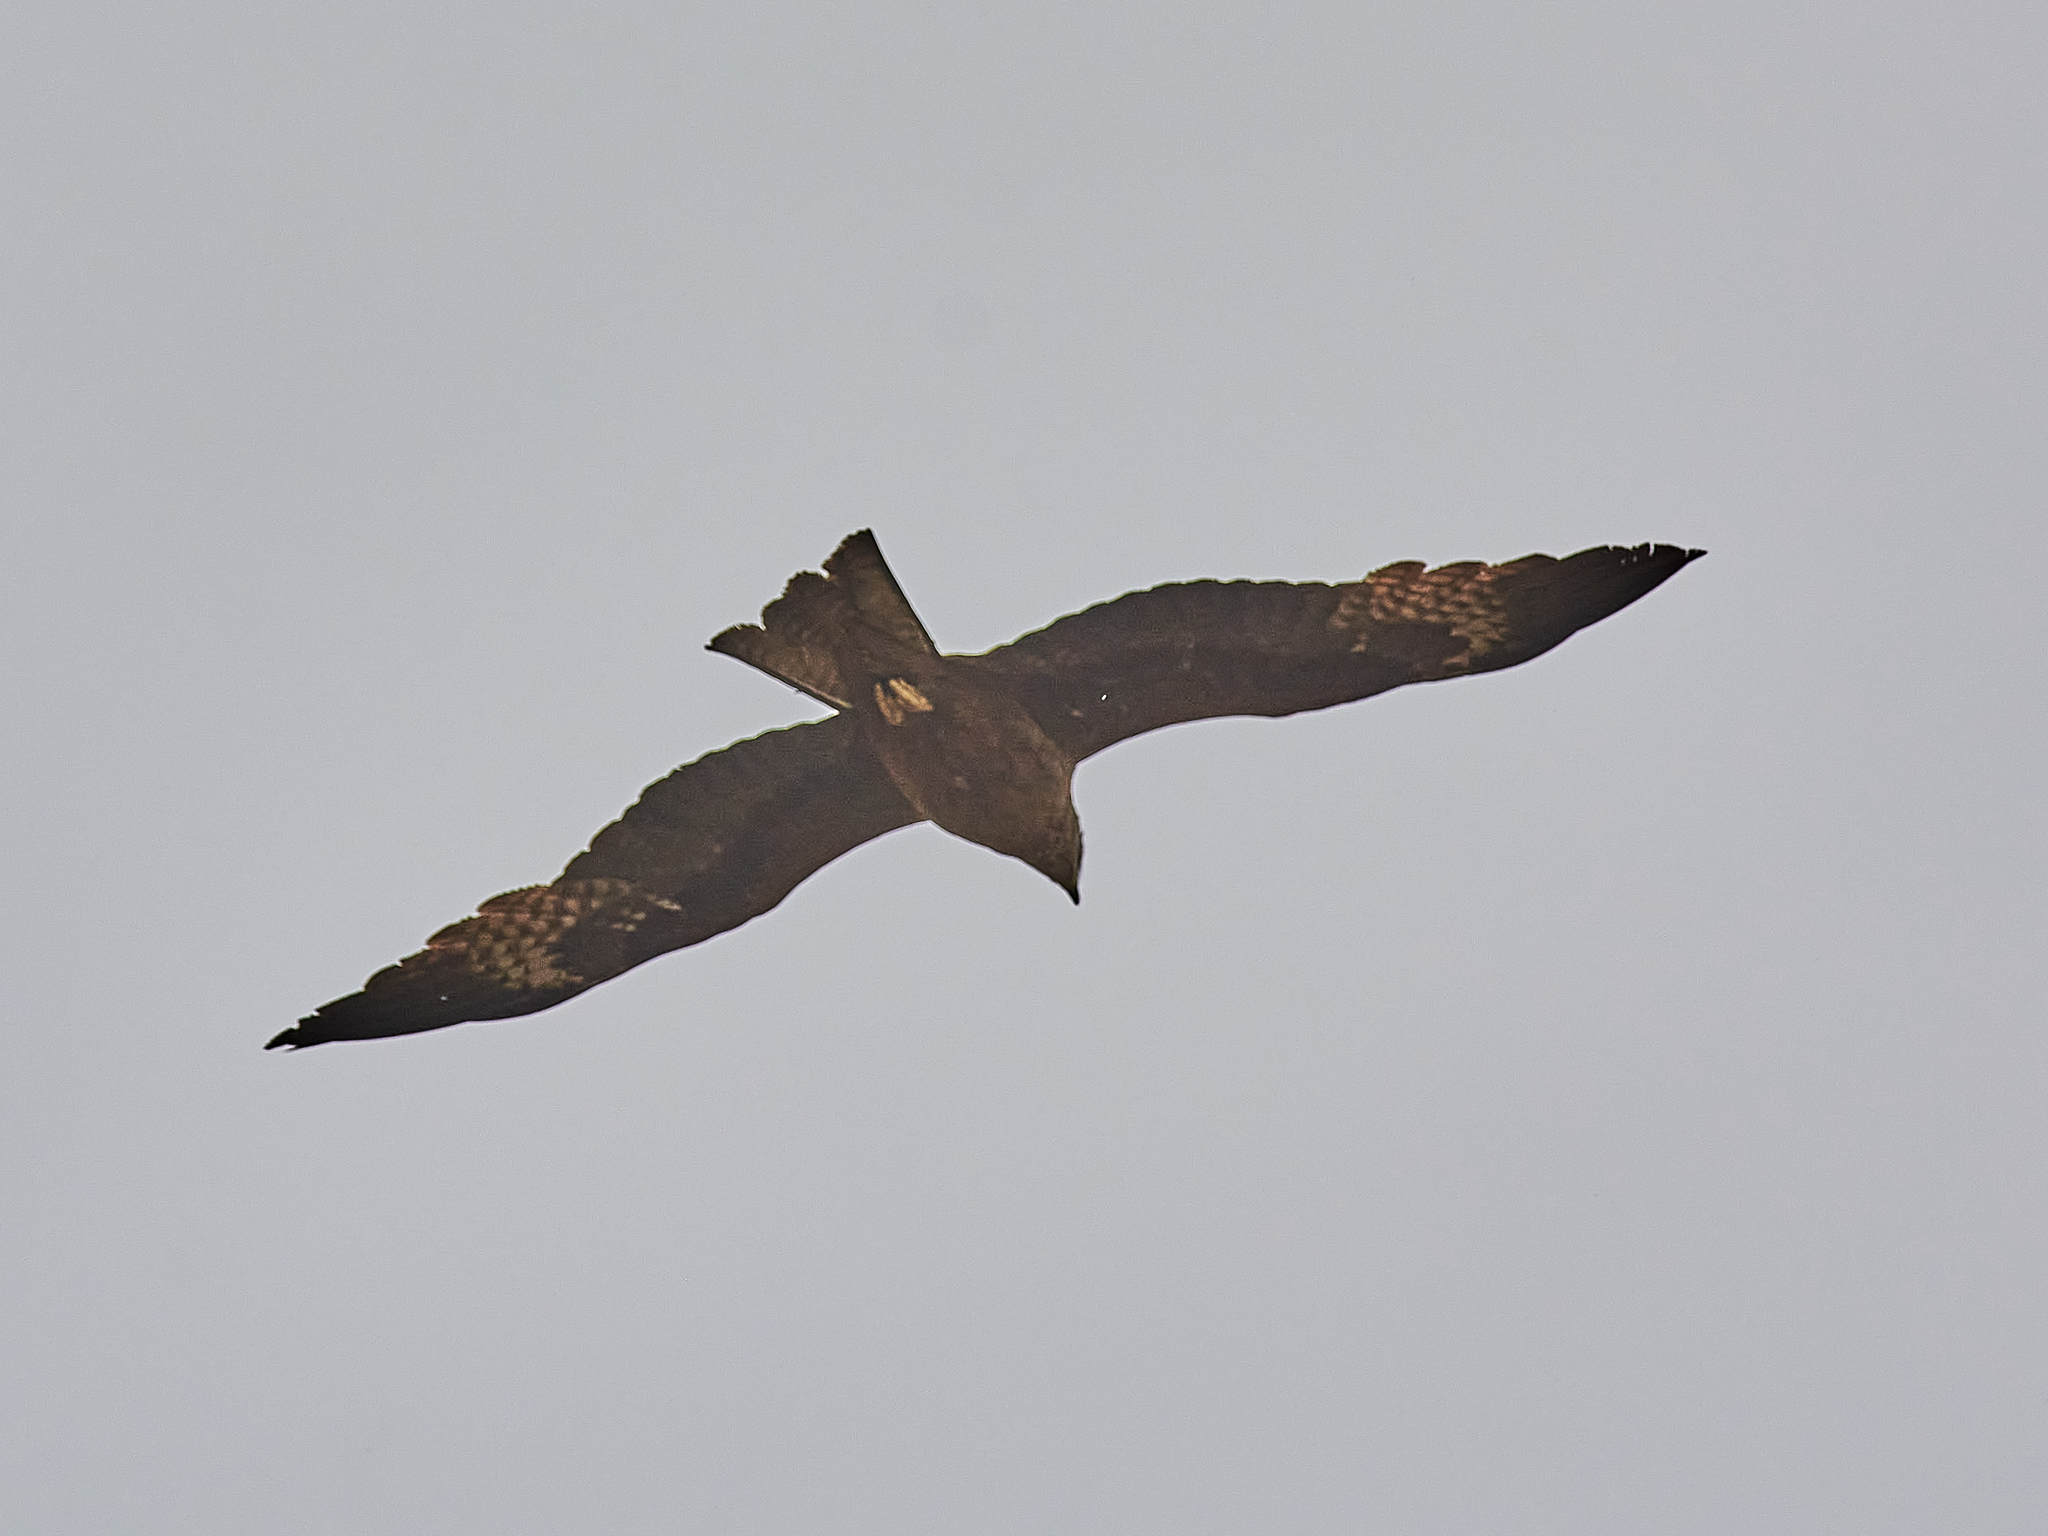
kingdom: Animalia
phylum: Chordata
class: Aves
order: Accipitriformes
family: Accipitridae
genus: Milvus
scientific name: Milvus migrans
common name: Black kite
